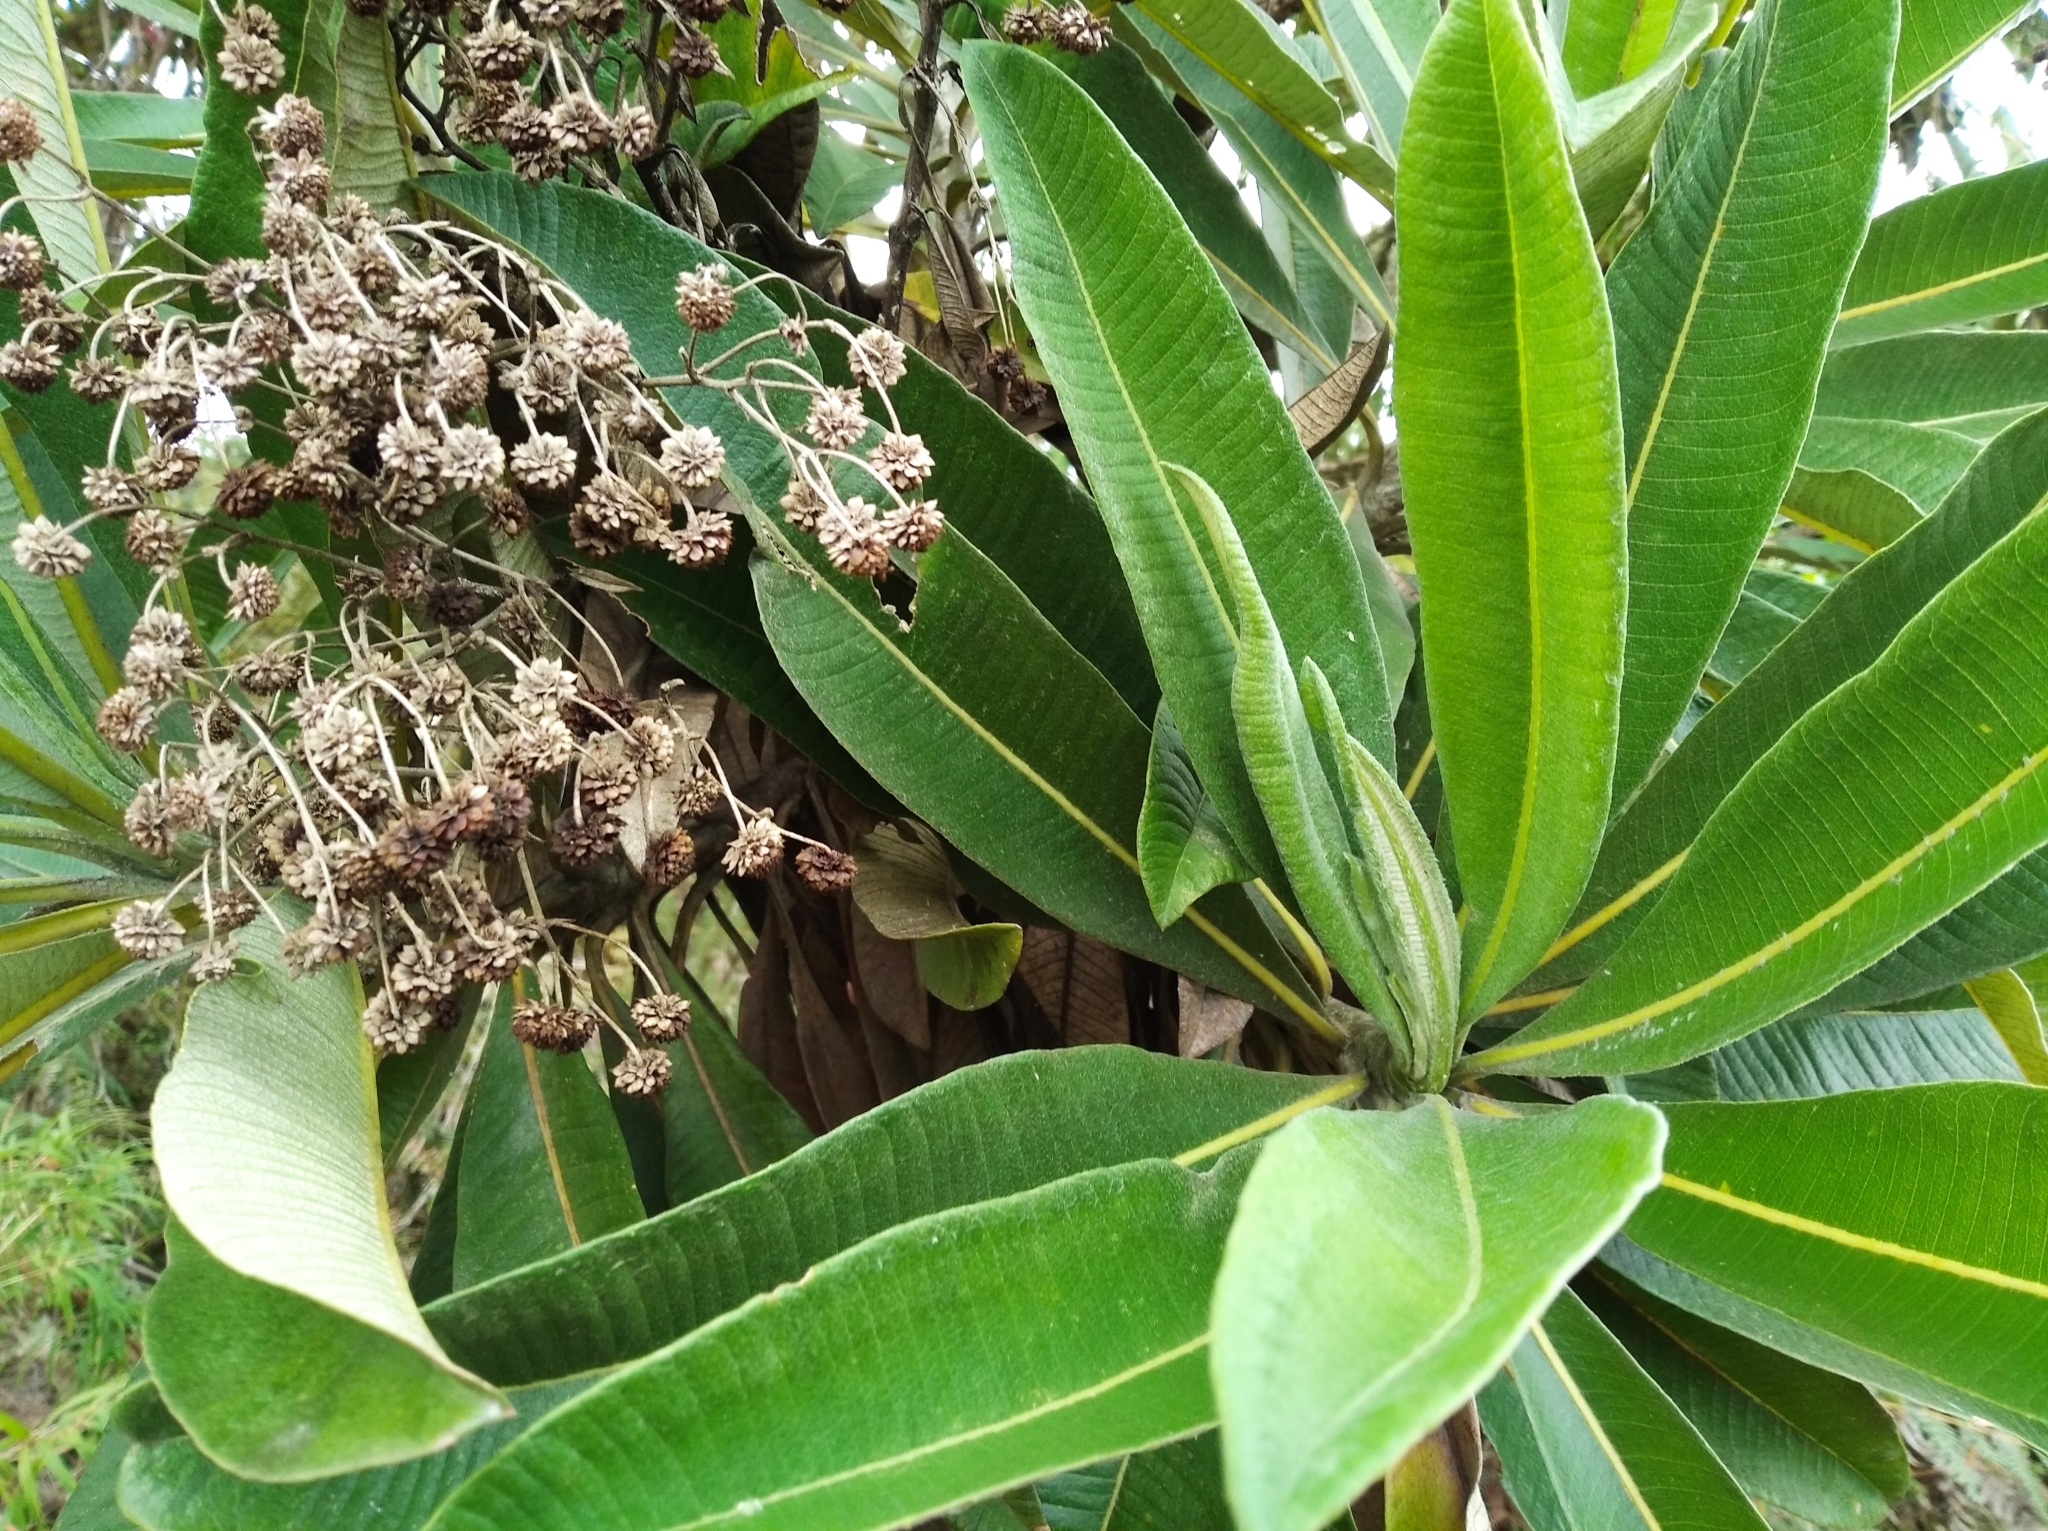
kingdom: Plantae
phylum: Tracheophyta
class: Magnoliopsida
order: Asterales
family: Asteraceae
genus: Espeletia
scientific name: Espeletia trujillensis
